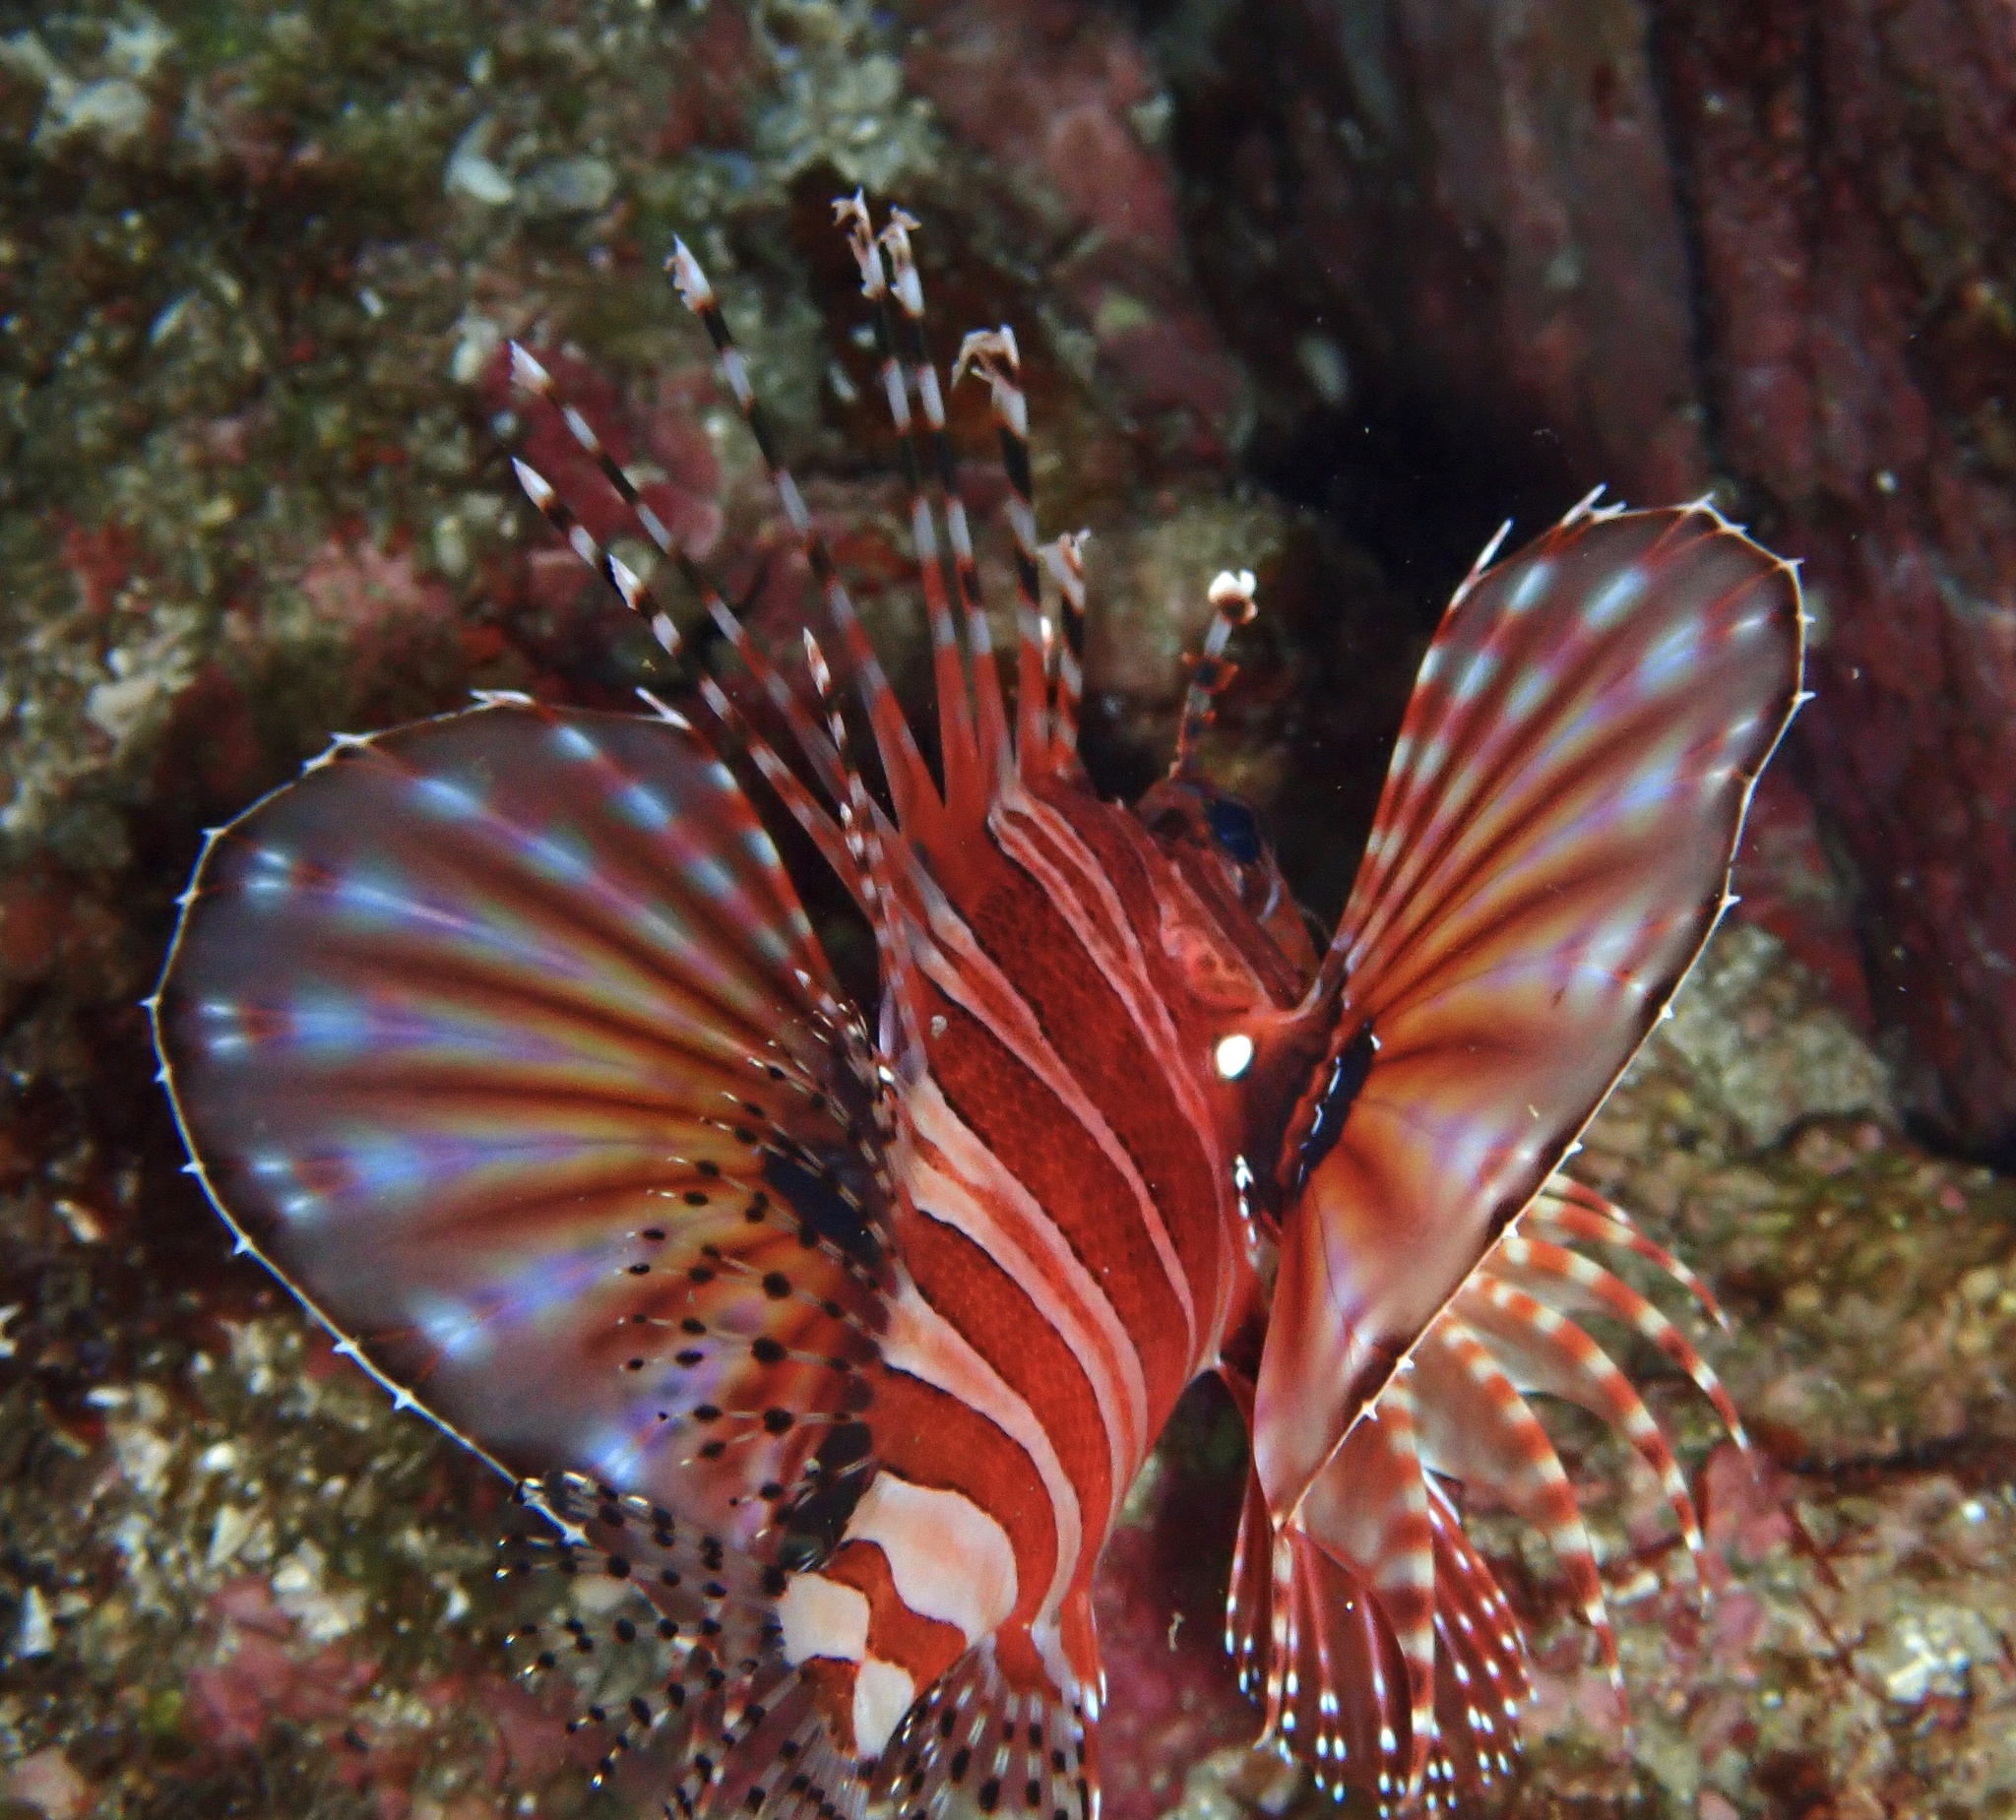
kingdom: Animalia
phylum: Chordata
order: Scorpaeniformes
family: Scorpaenidae
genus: Dendrochirus
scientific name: Dendrochirus zebra
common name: Zebra lionfish
